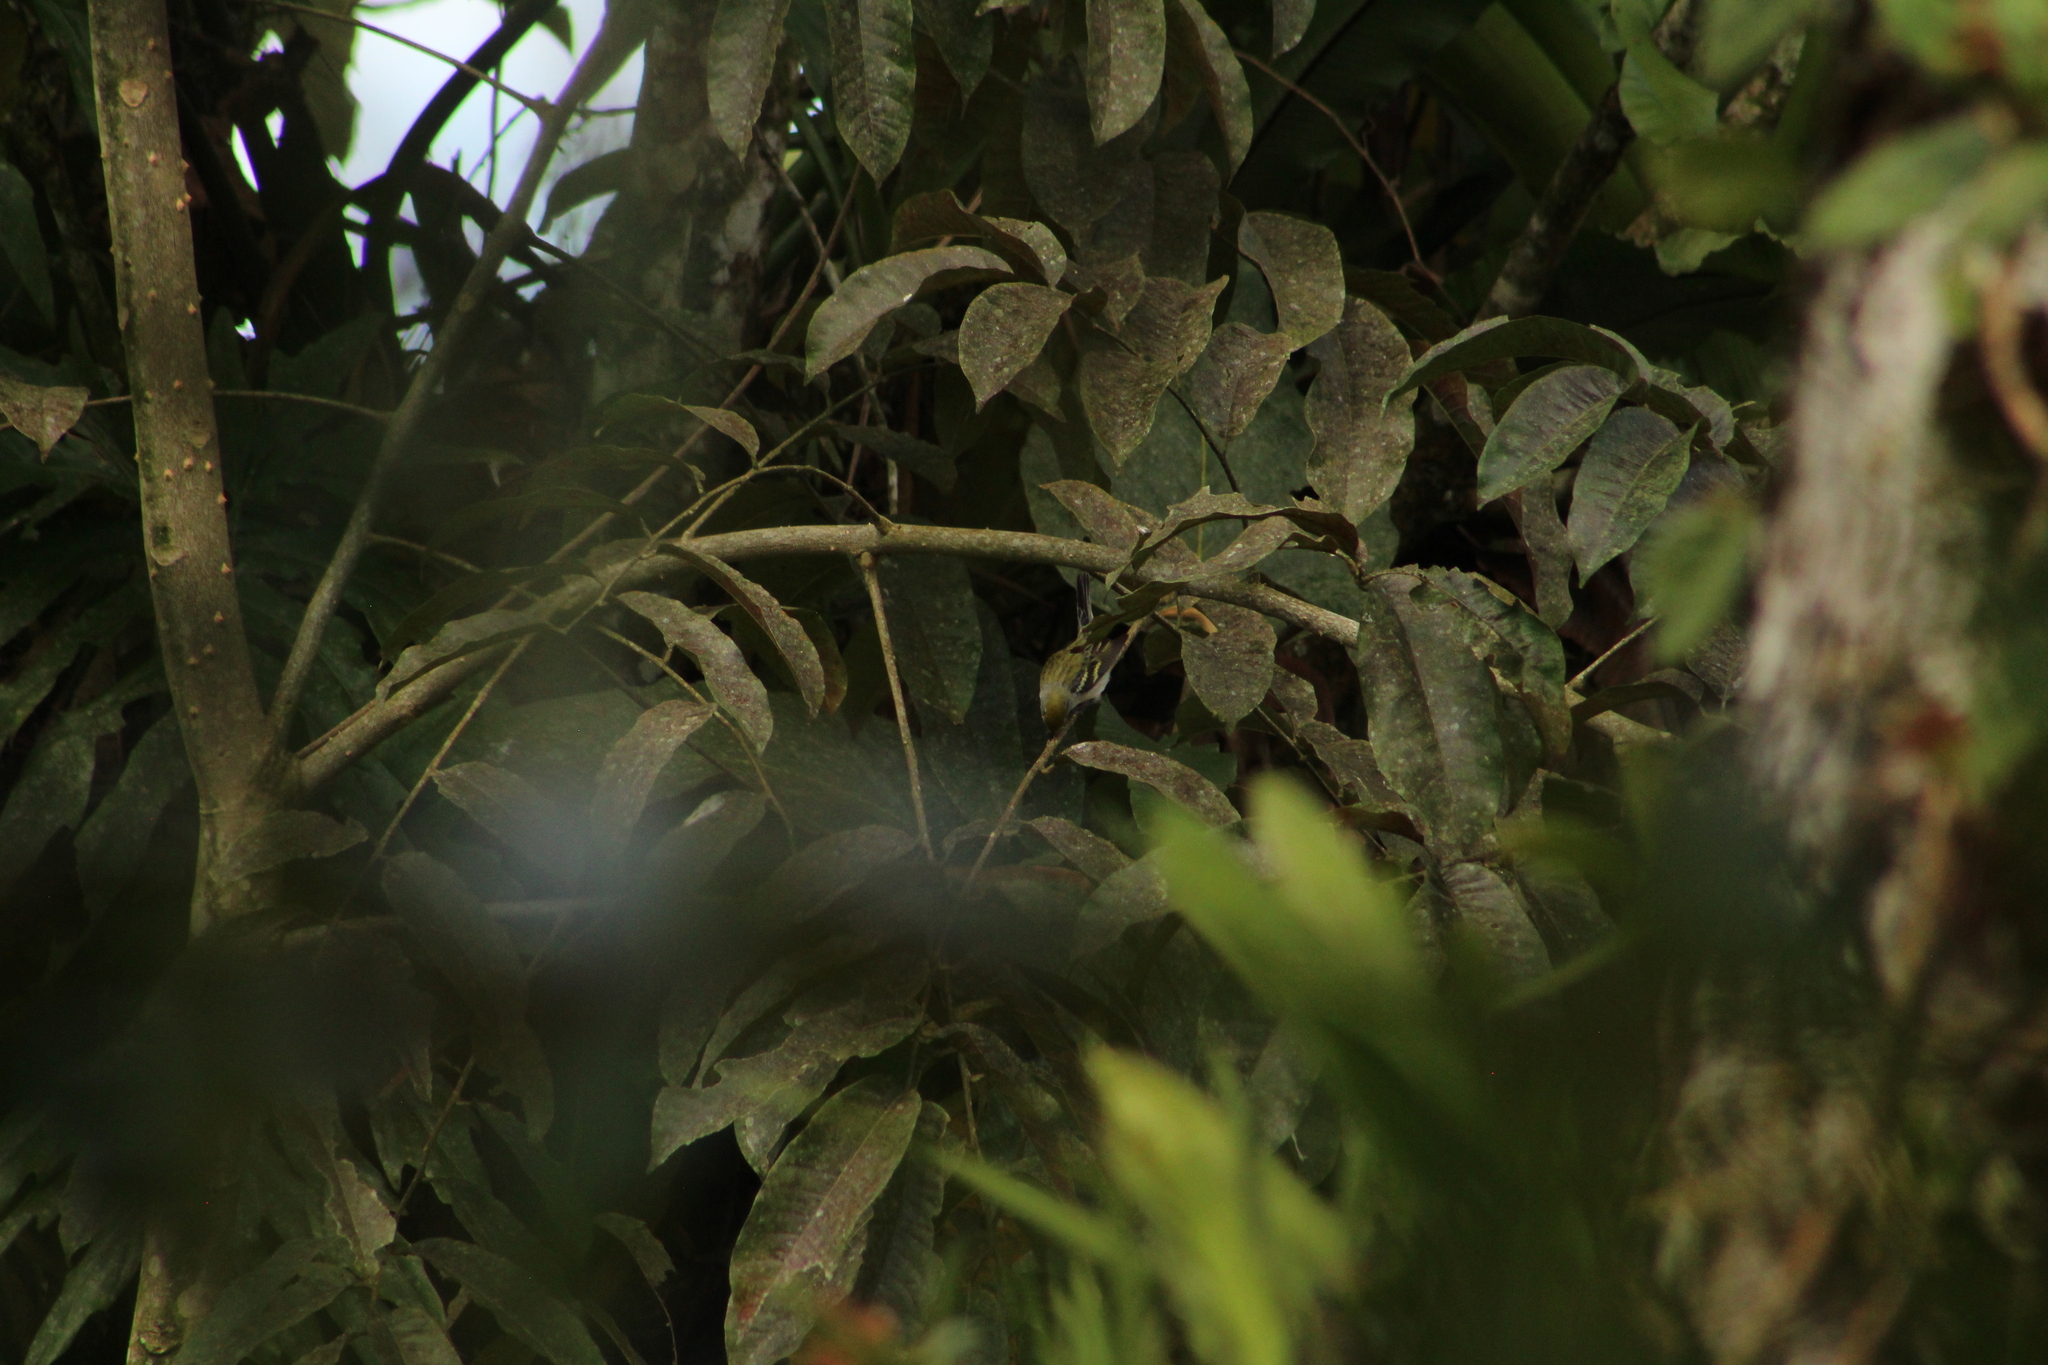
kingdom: Animalia
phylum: Chordata
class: Aves
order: Passeriformes
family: Parulidae
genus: Setophaga
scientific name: Setophaga pensylvanica
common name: Chestnut-sided warbler
